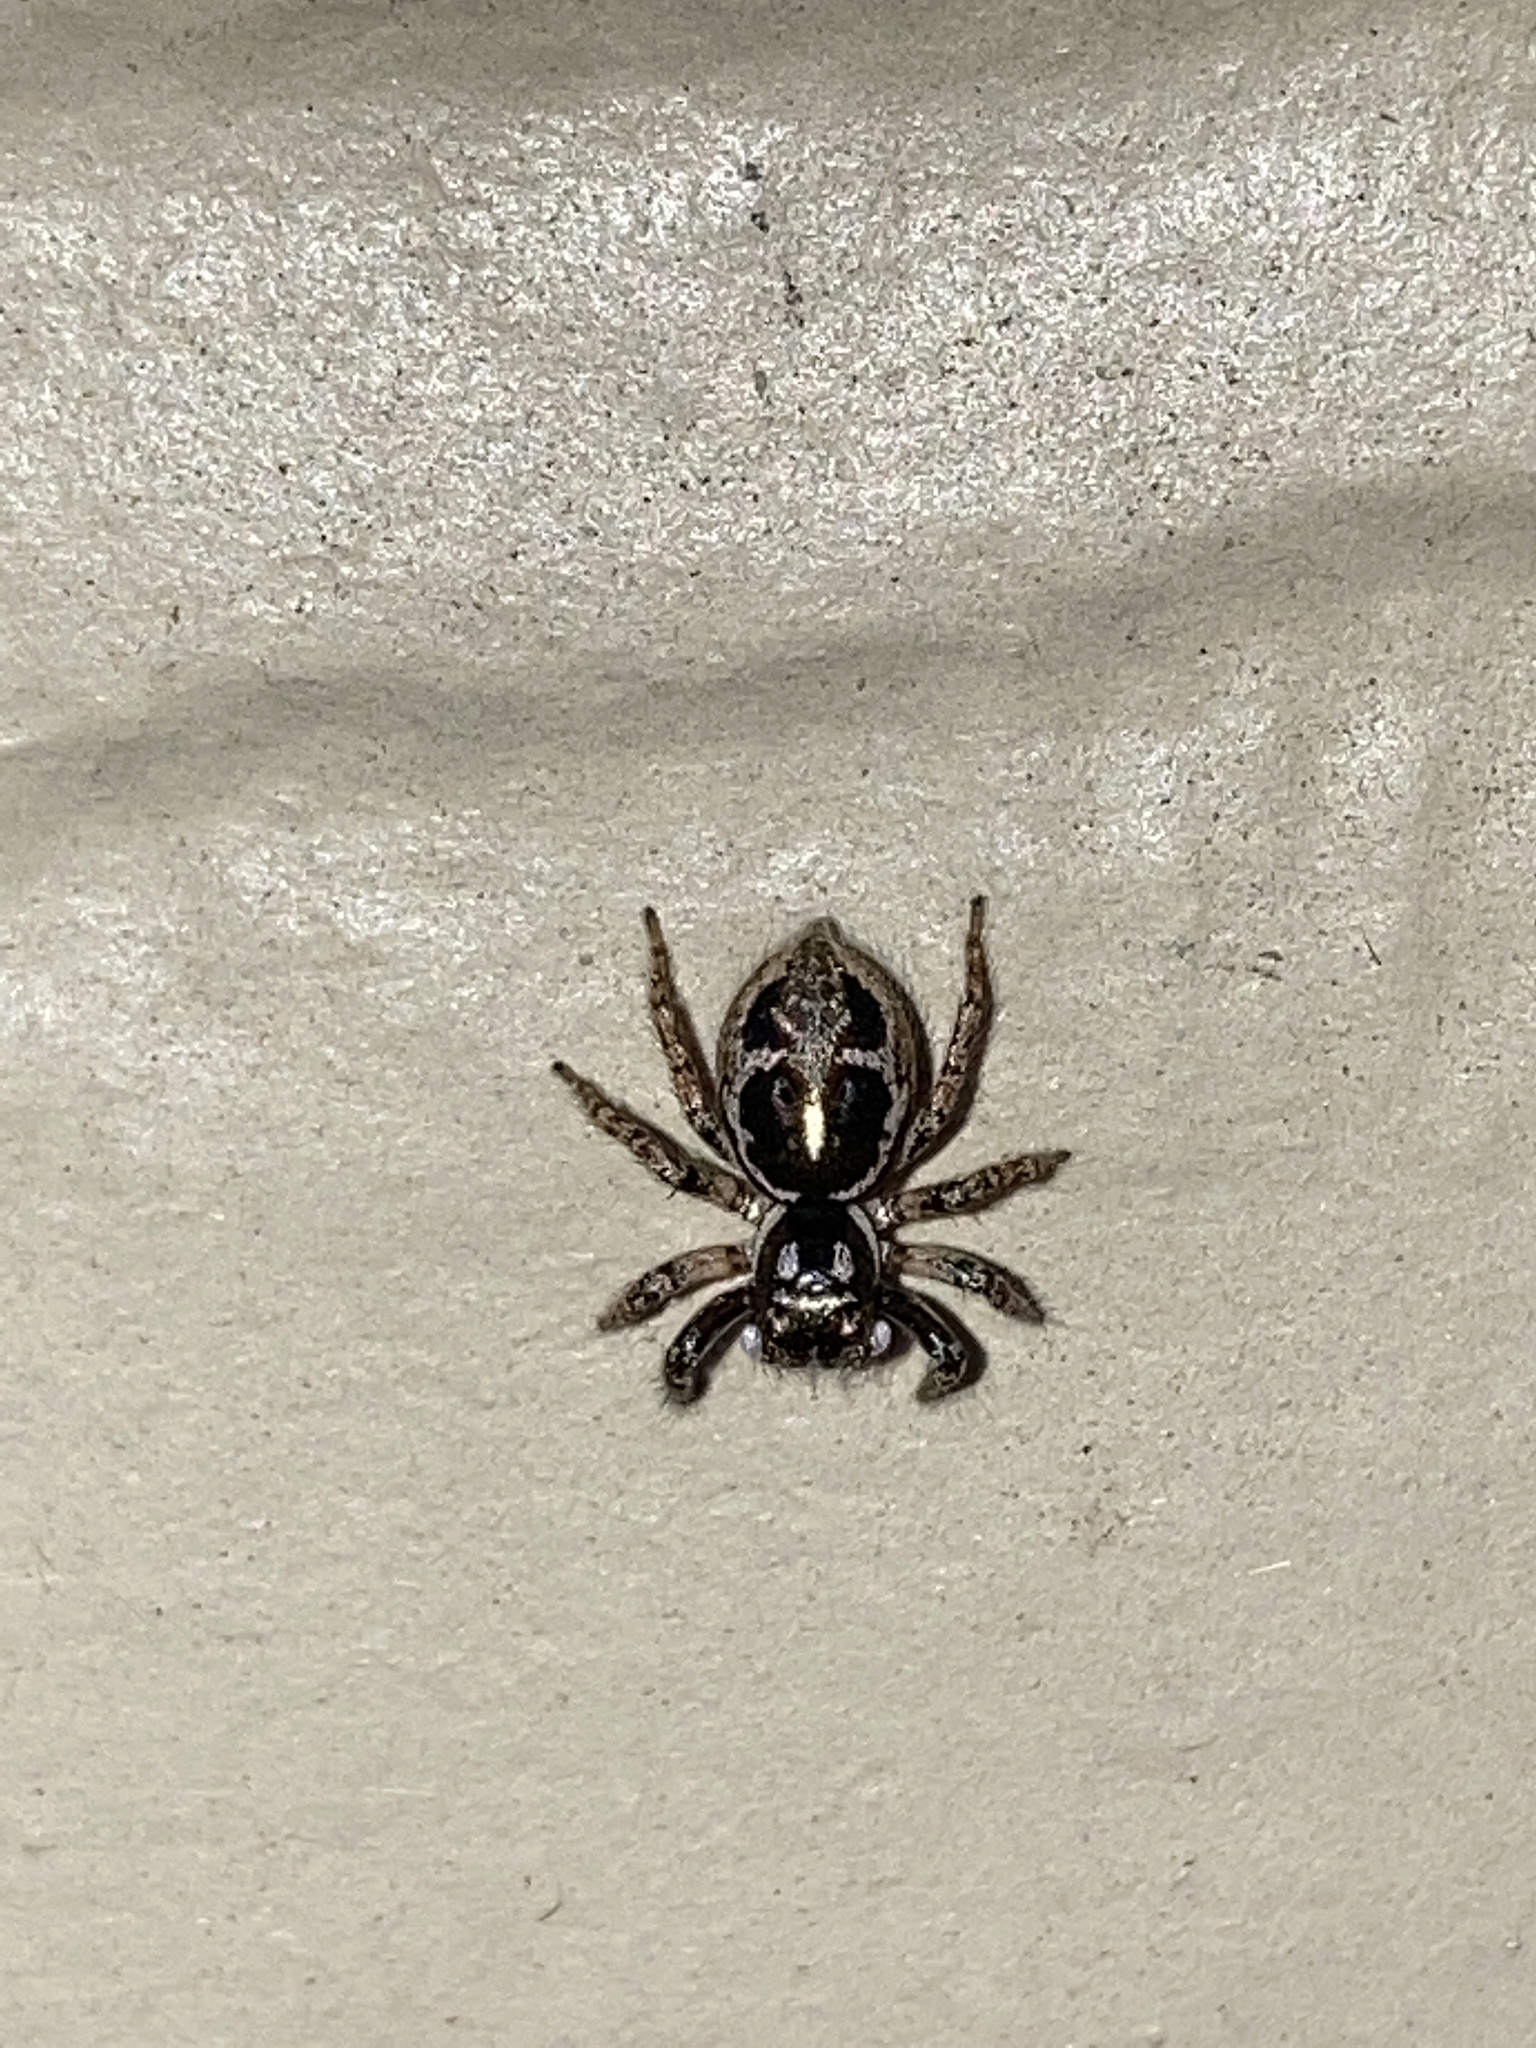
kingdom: Animalia
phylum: Arthropoda
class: Arachnida
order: Araneae
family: Salticidae
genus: Anasaitis
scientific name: Anasaitis canosa
